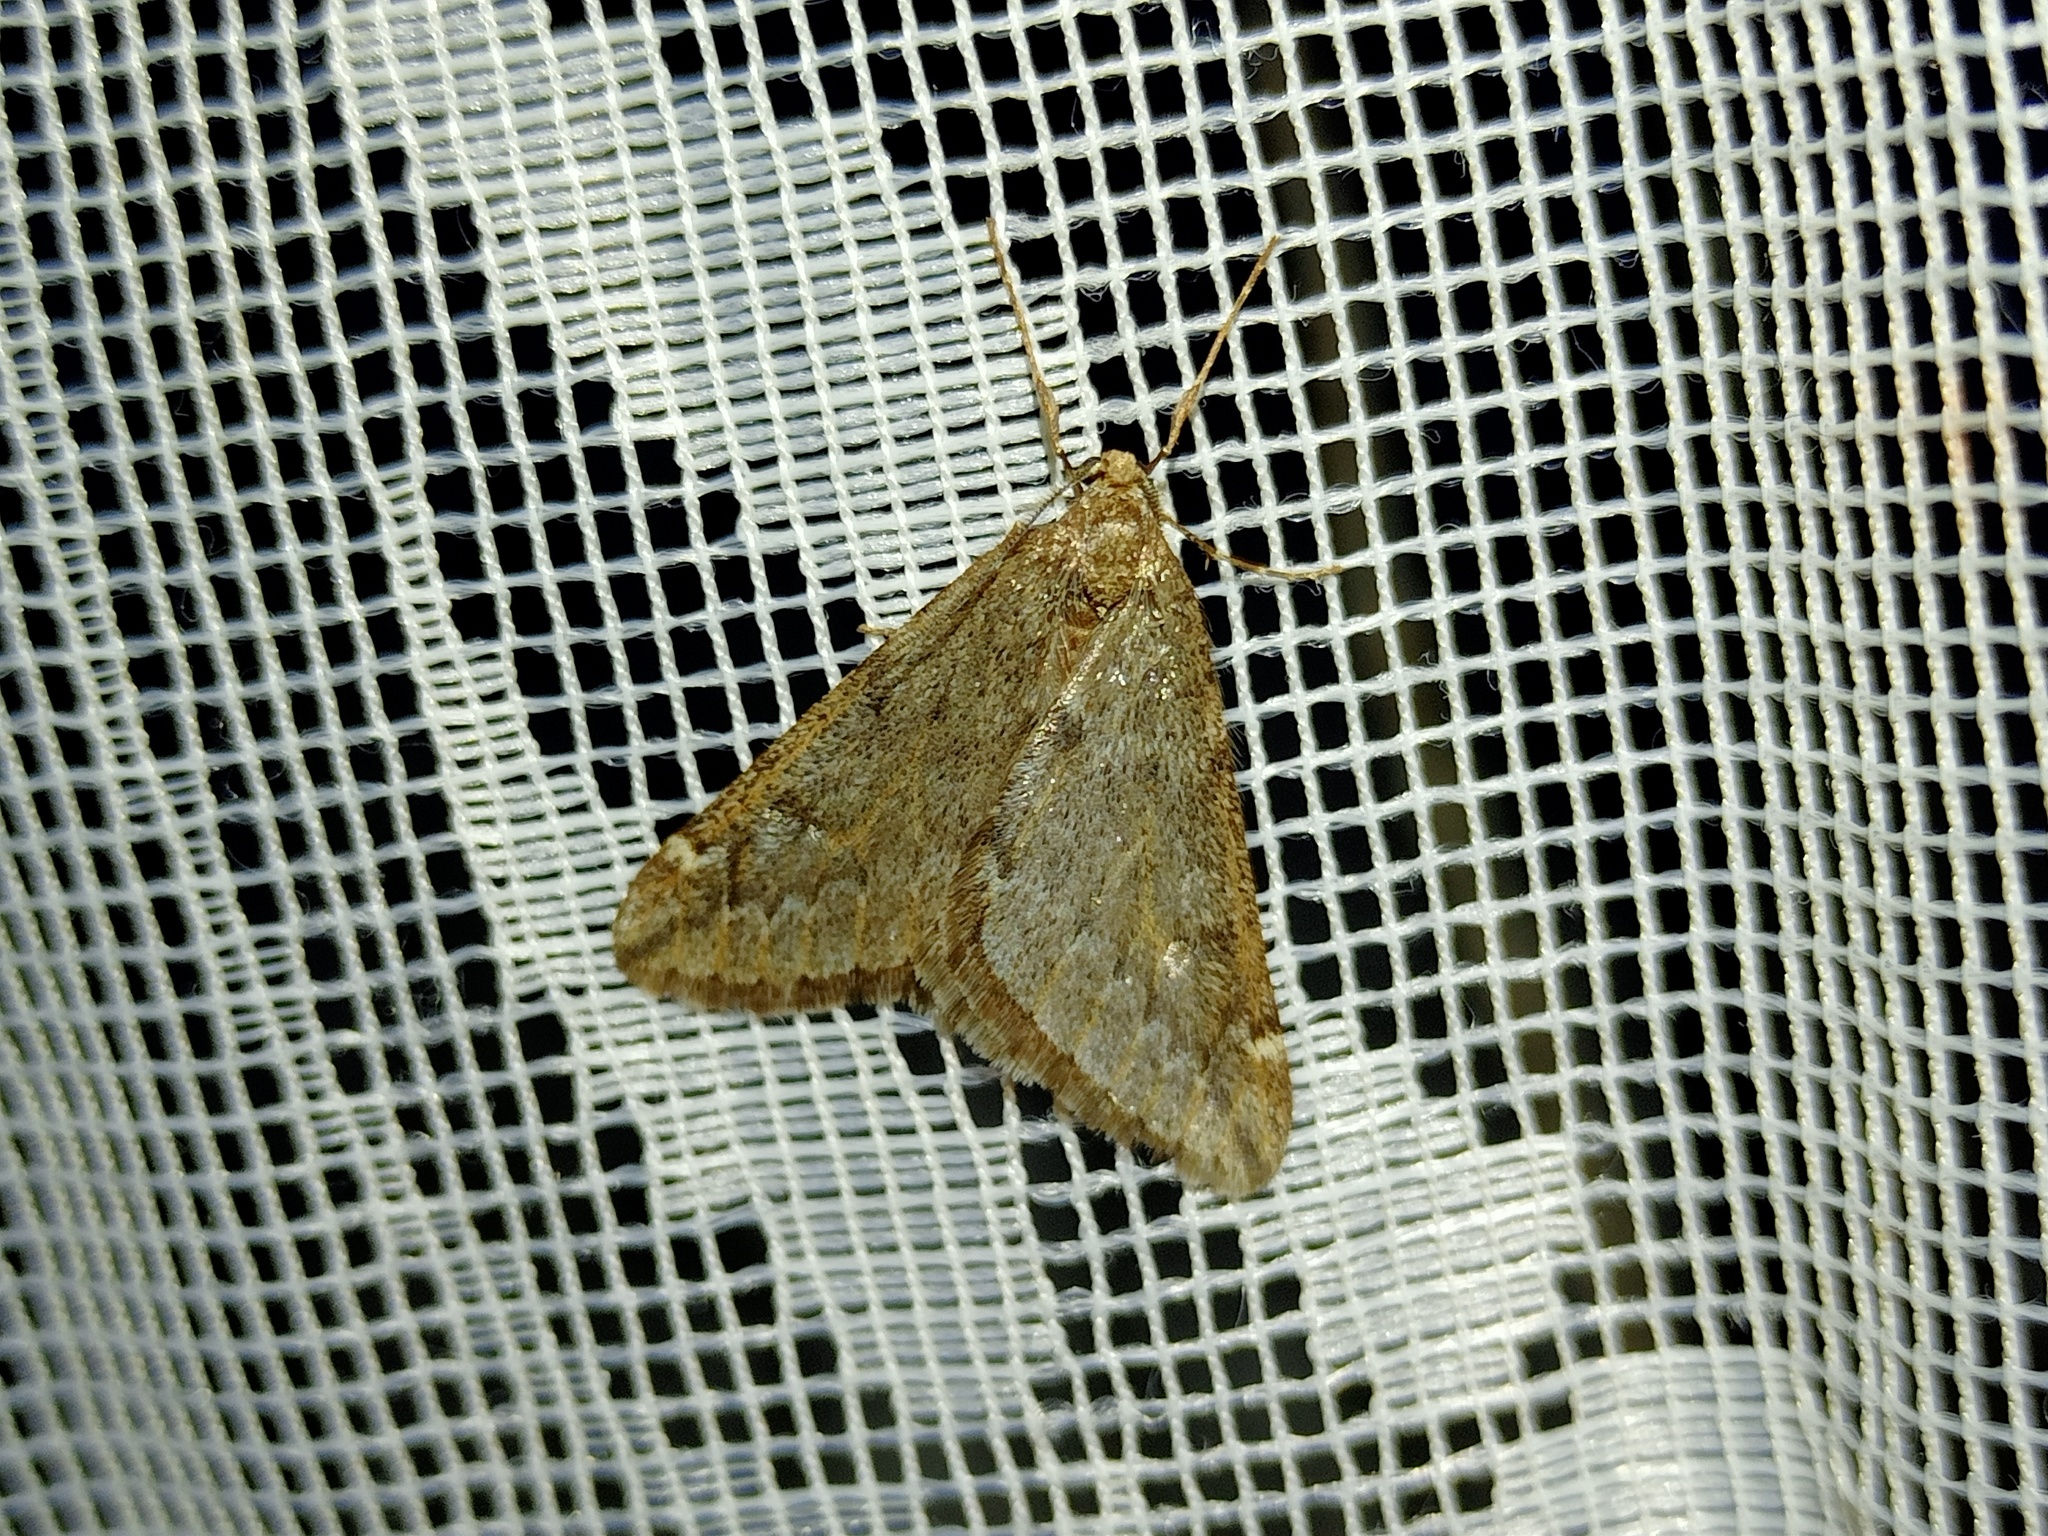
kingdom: Animalia
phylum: Arthropoda
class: Insecta
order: Lepidoptera
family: Geometridae
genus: Alsophila
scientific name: Alsophila aescularia
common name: March moth
